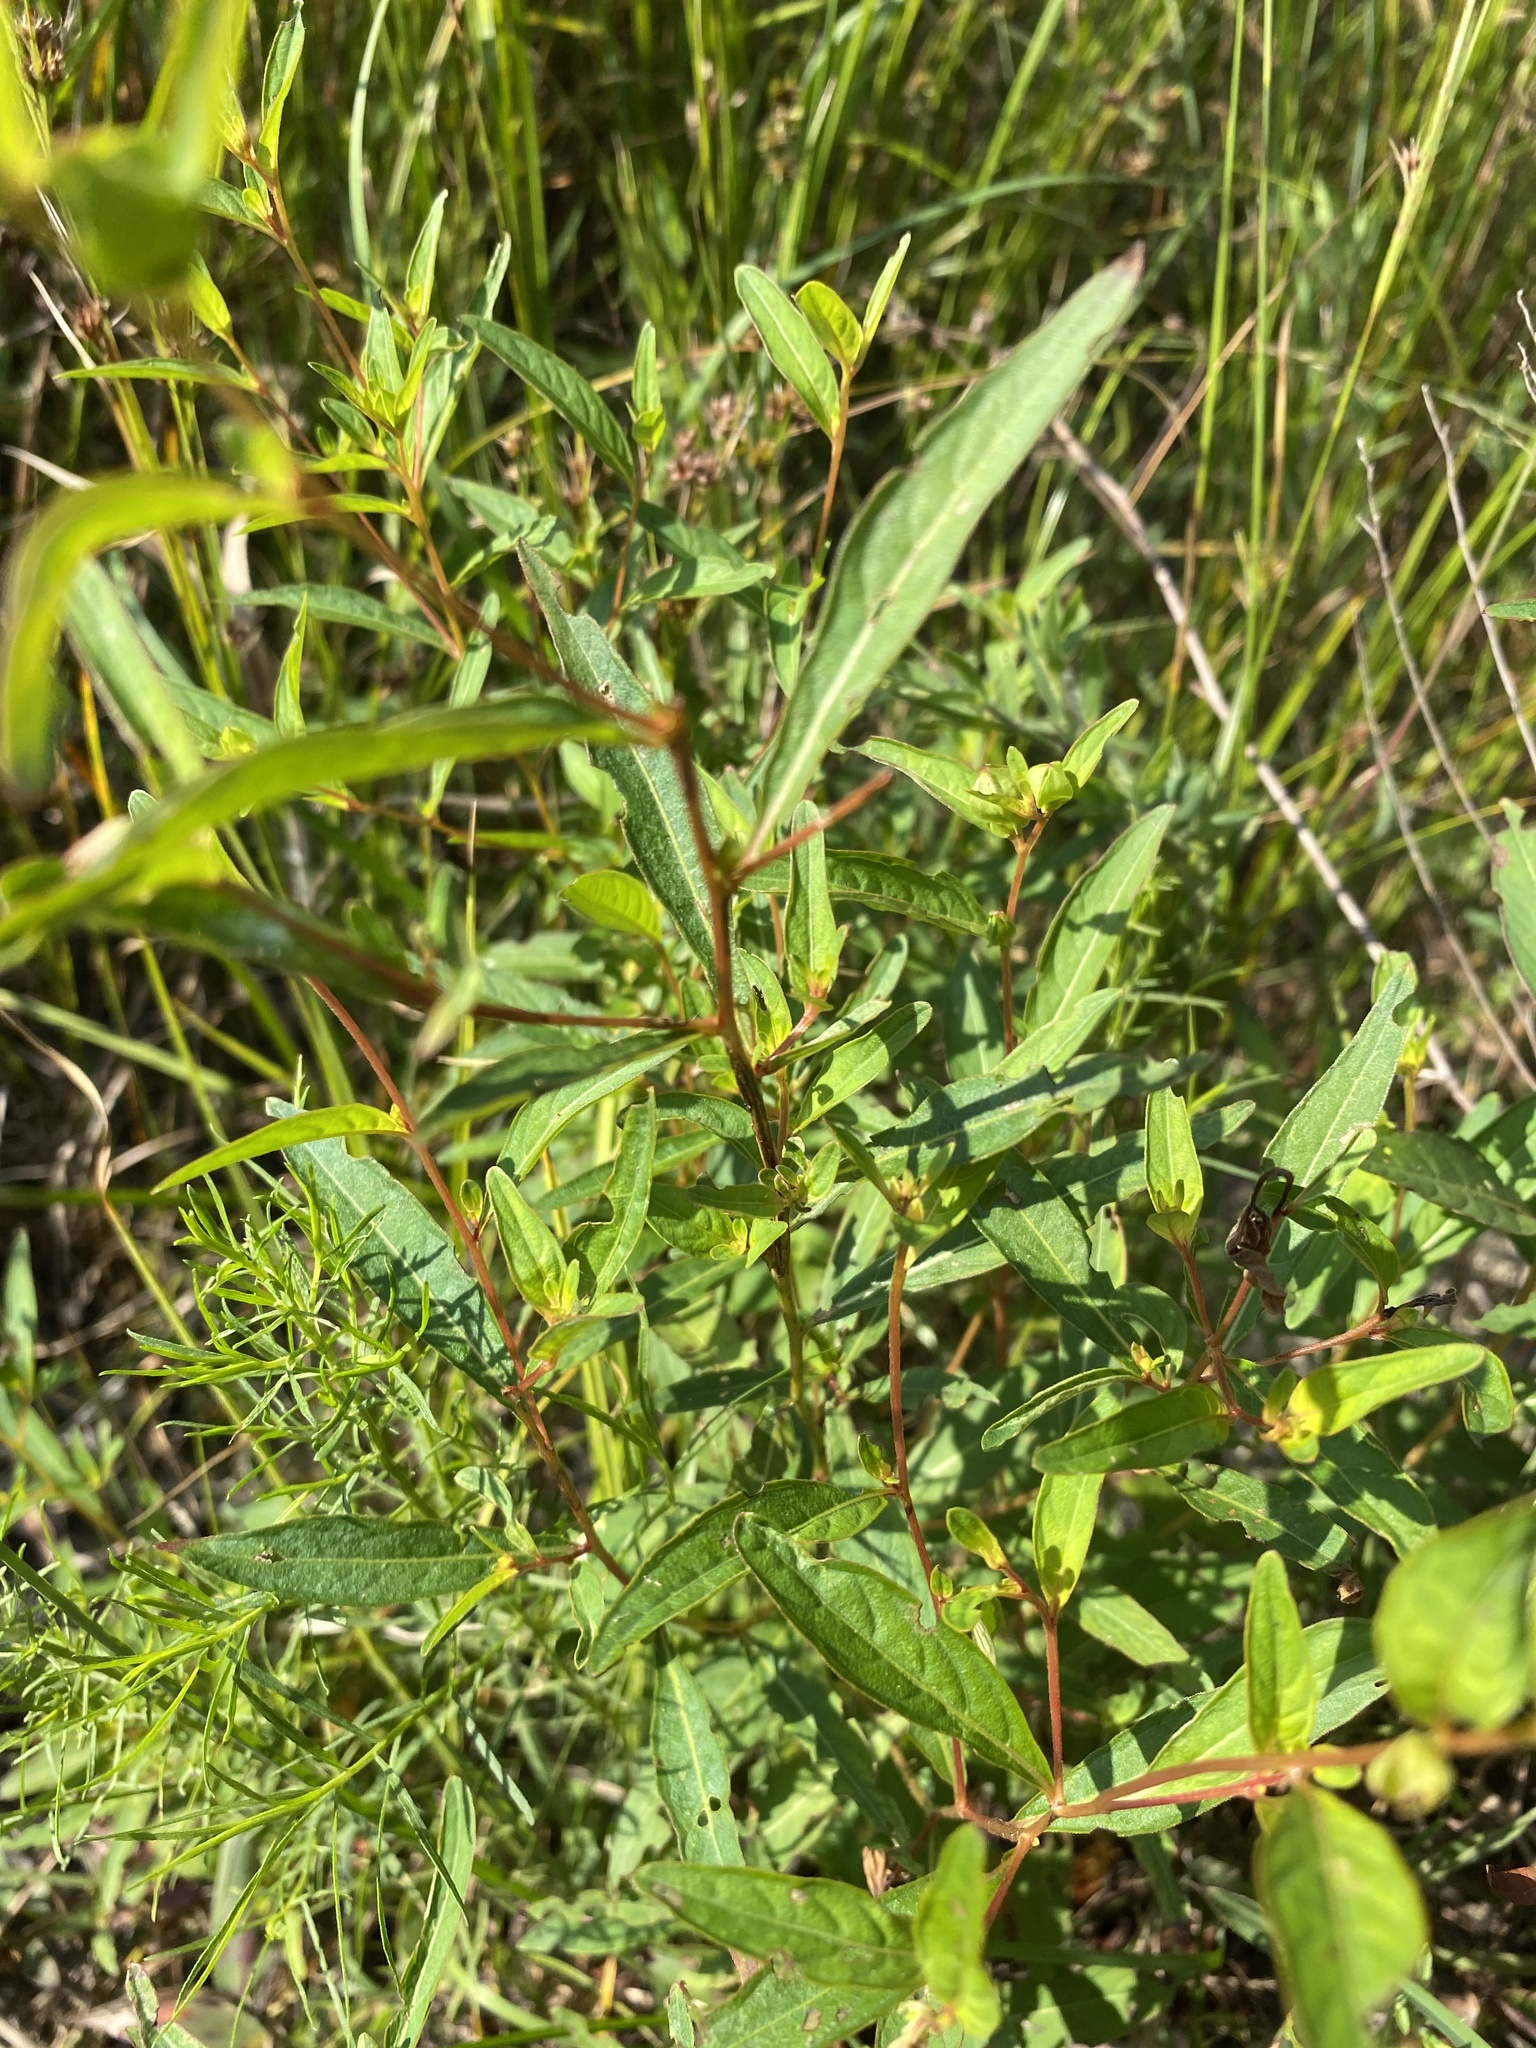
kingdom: Plantae
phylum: Tracheophyta
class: Magnoliopsida
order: Myrtales
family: Onagraceae
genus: Ludwigia
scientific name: Ludwigia alternifolia
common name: Rattlebox
